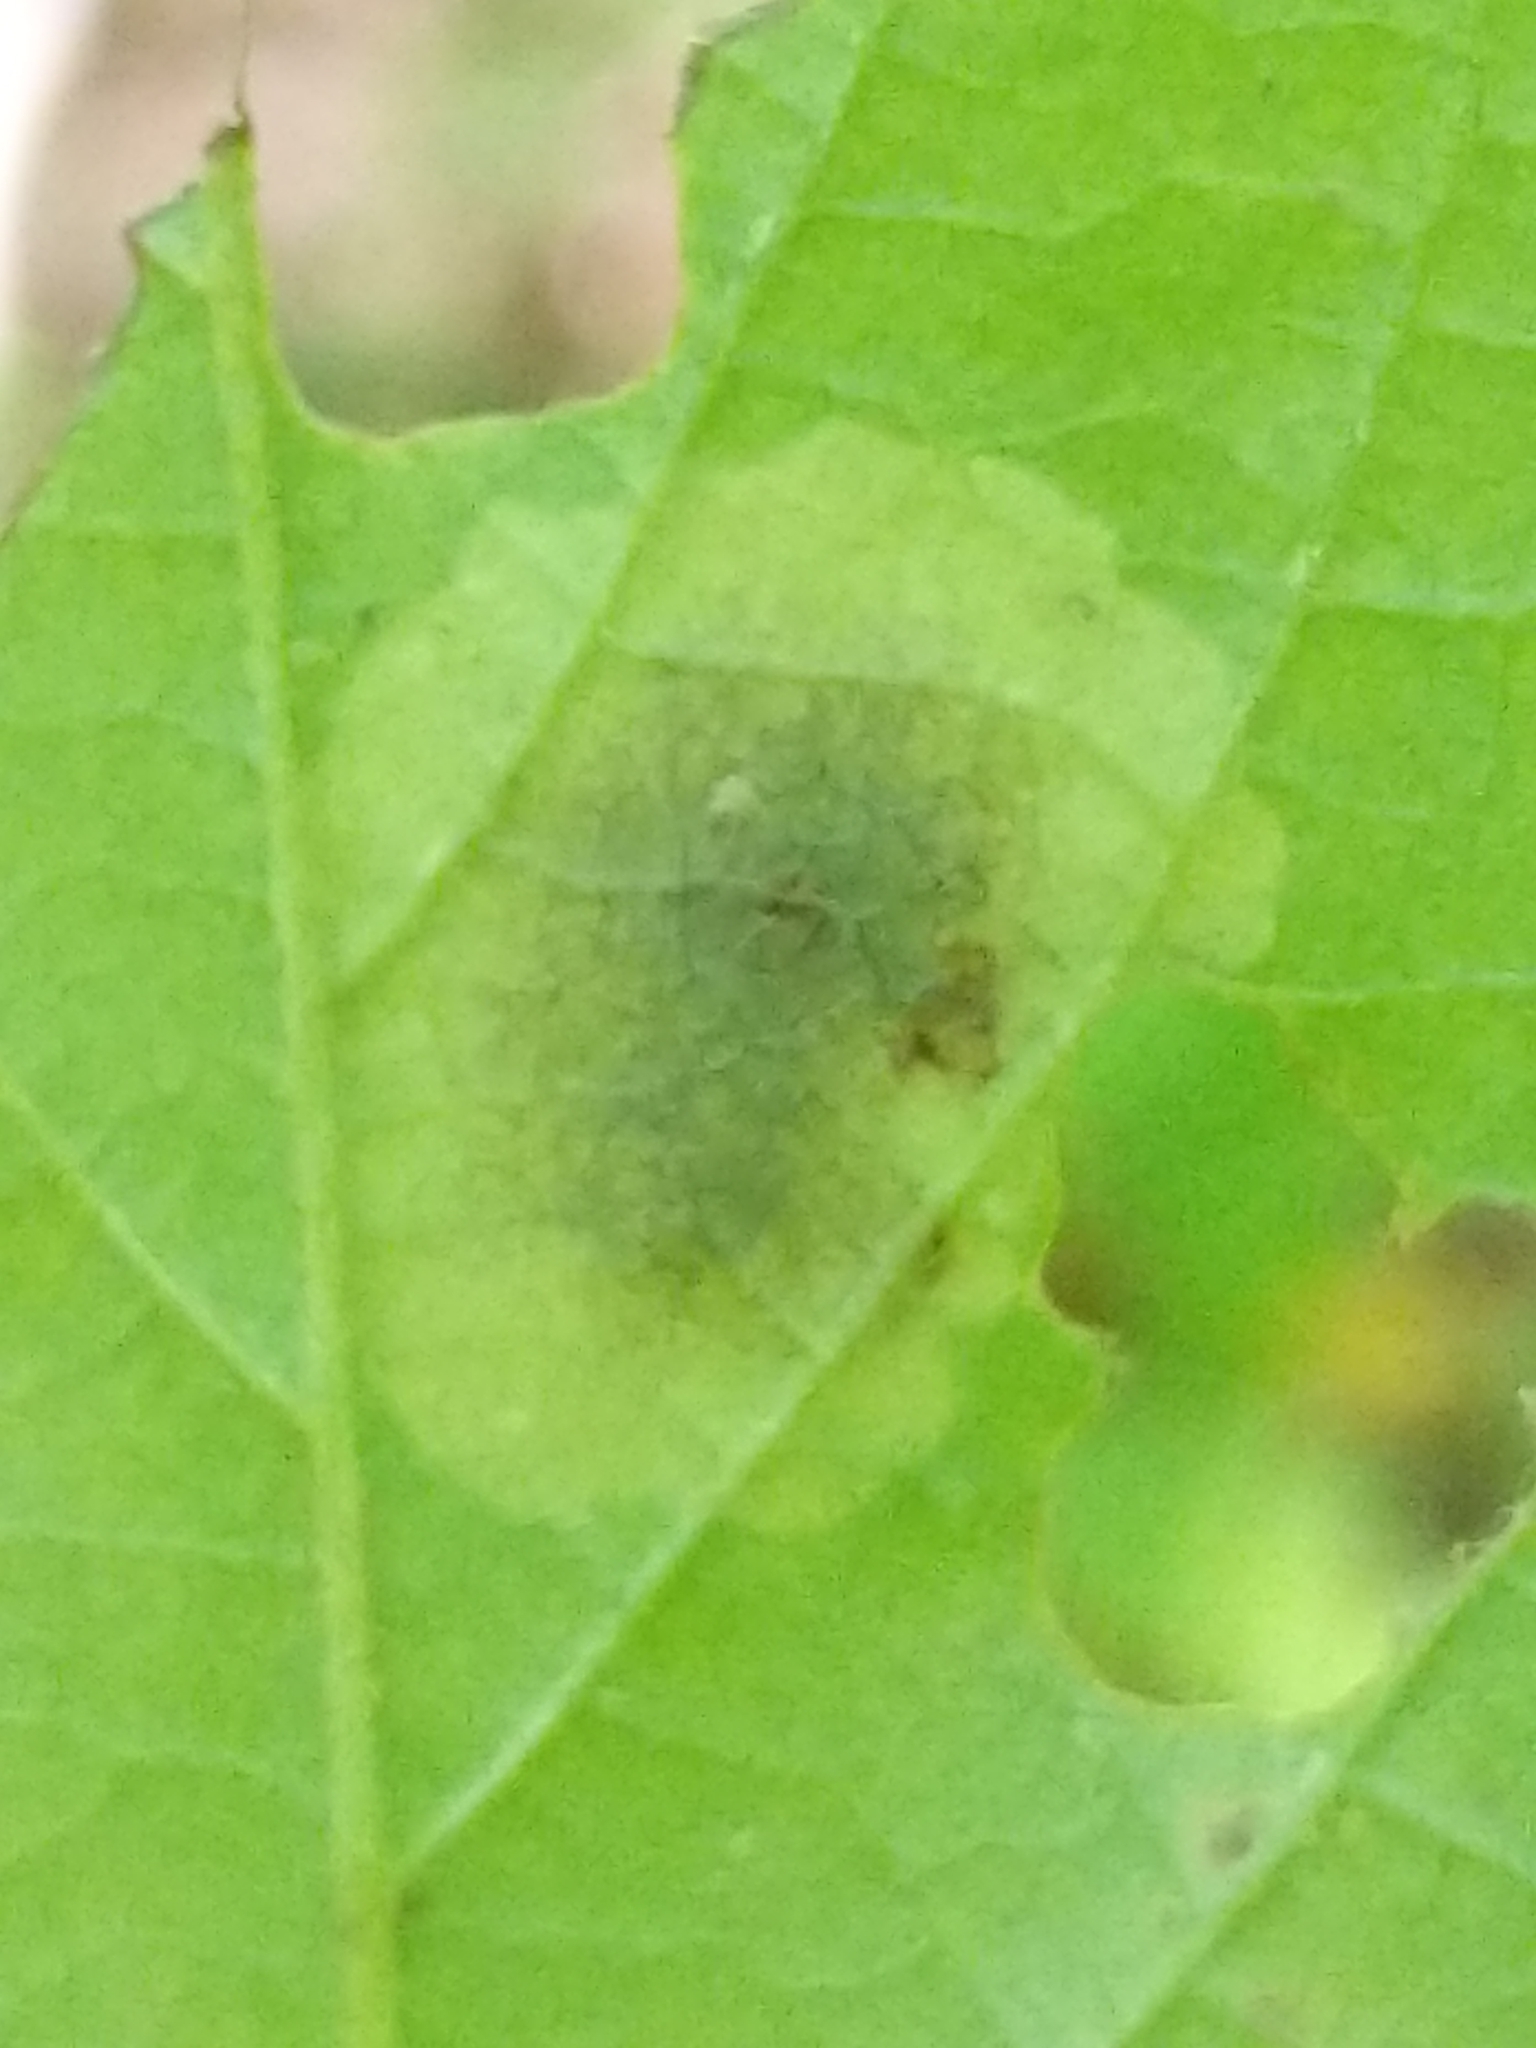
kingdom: Animalia
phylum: Arthropoda
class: Insecta
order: Lepidoptera
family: Gracillariidae
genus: Cameraria
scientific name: Cameraria hamameliella
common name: Witchhazel leafminer
